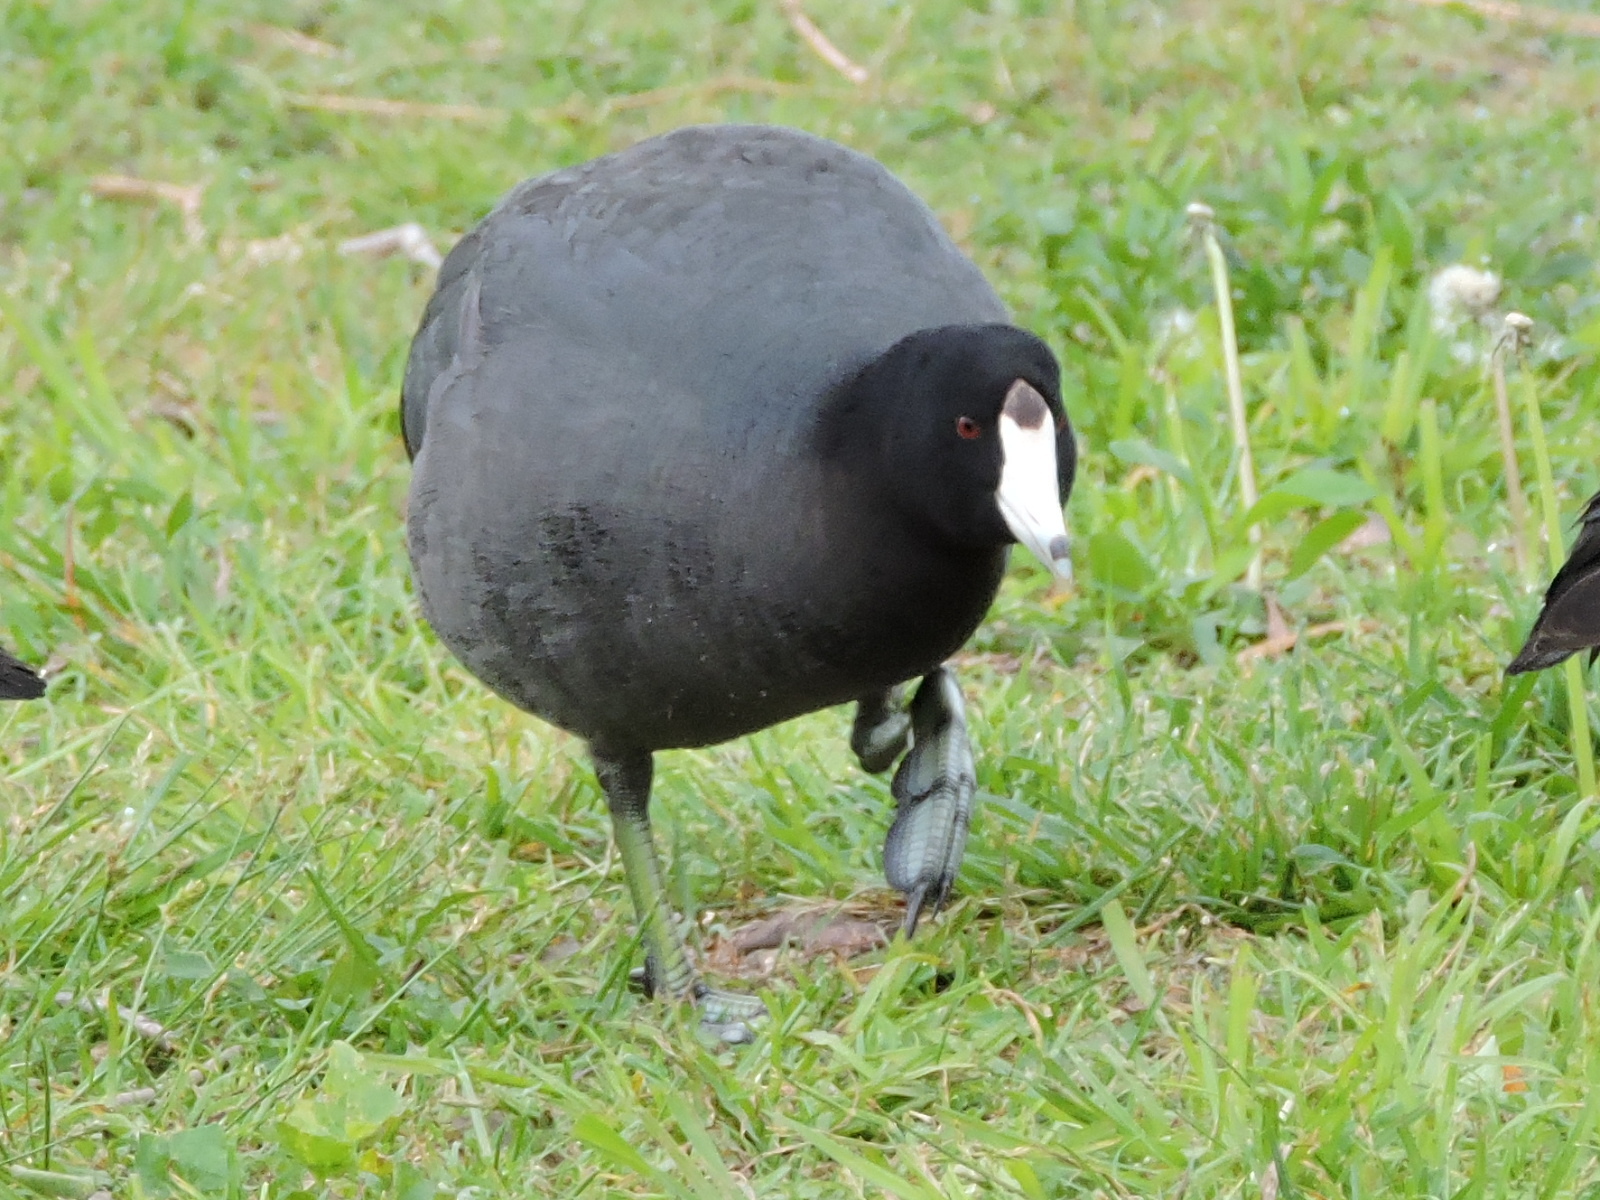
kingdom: Animalia
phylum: Chordata
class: Aves
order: Gruiformes
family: Rallidae
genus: Fulica
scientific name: Fulica americana
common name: American coot
